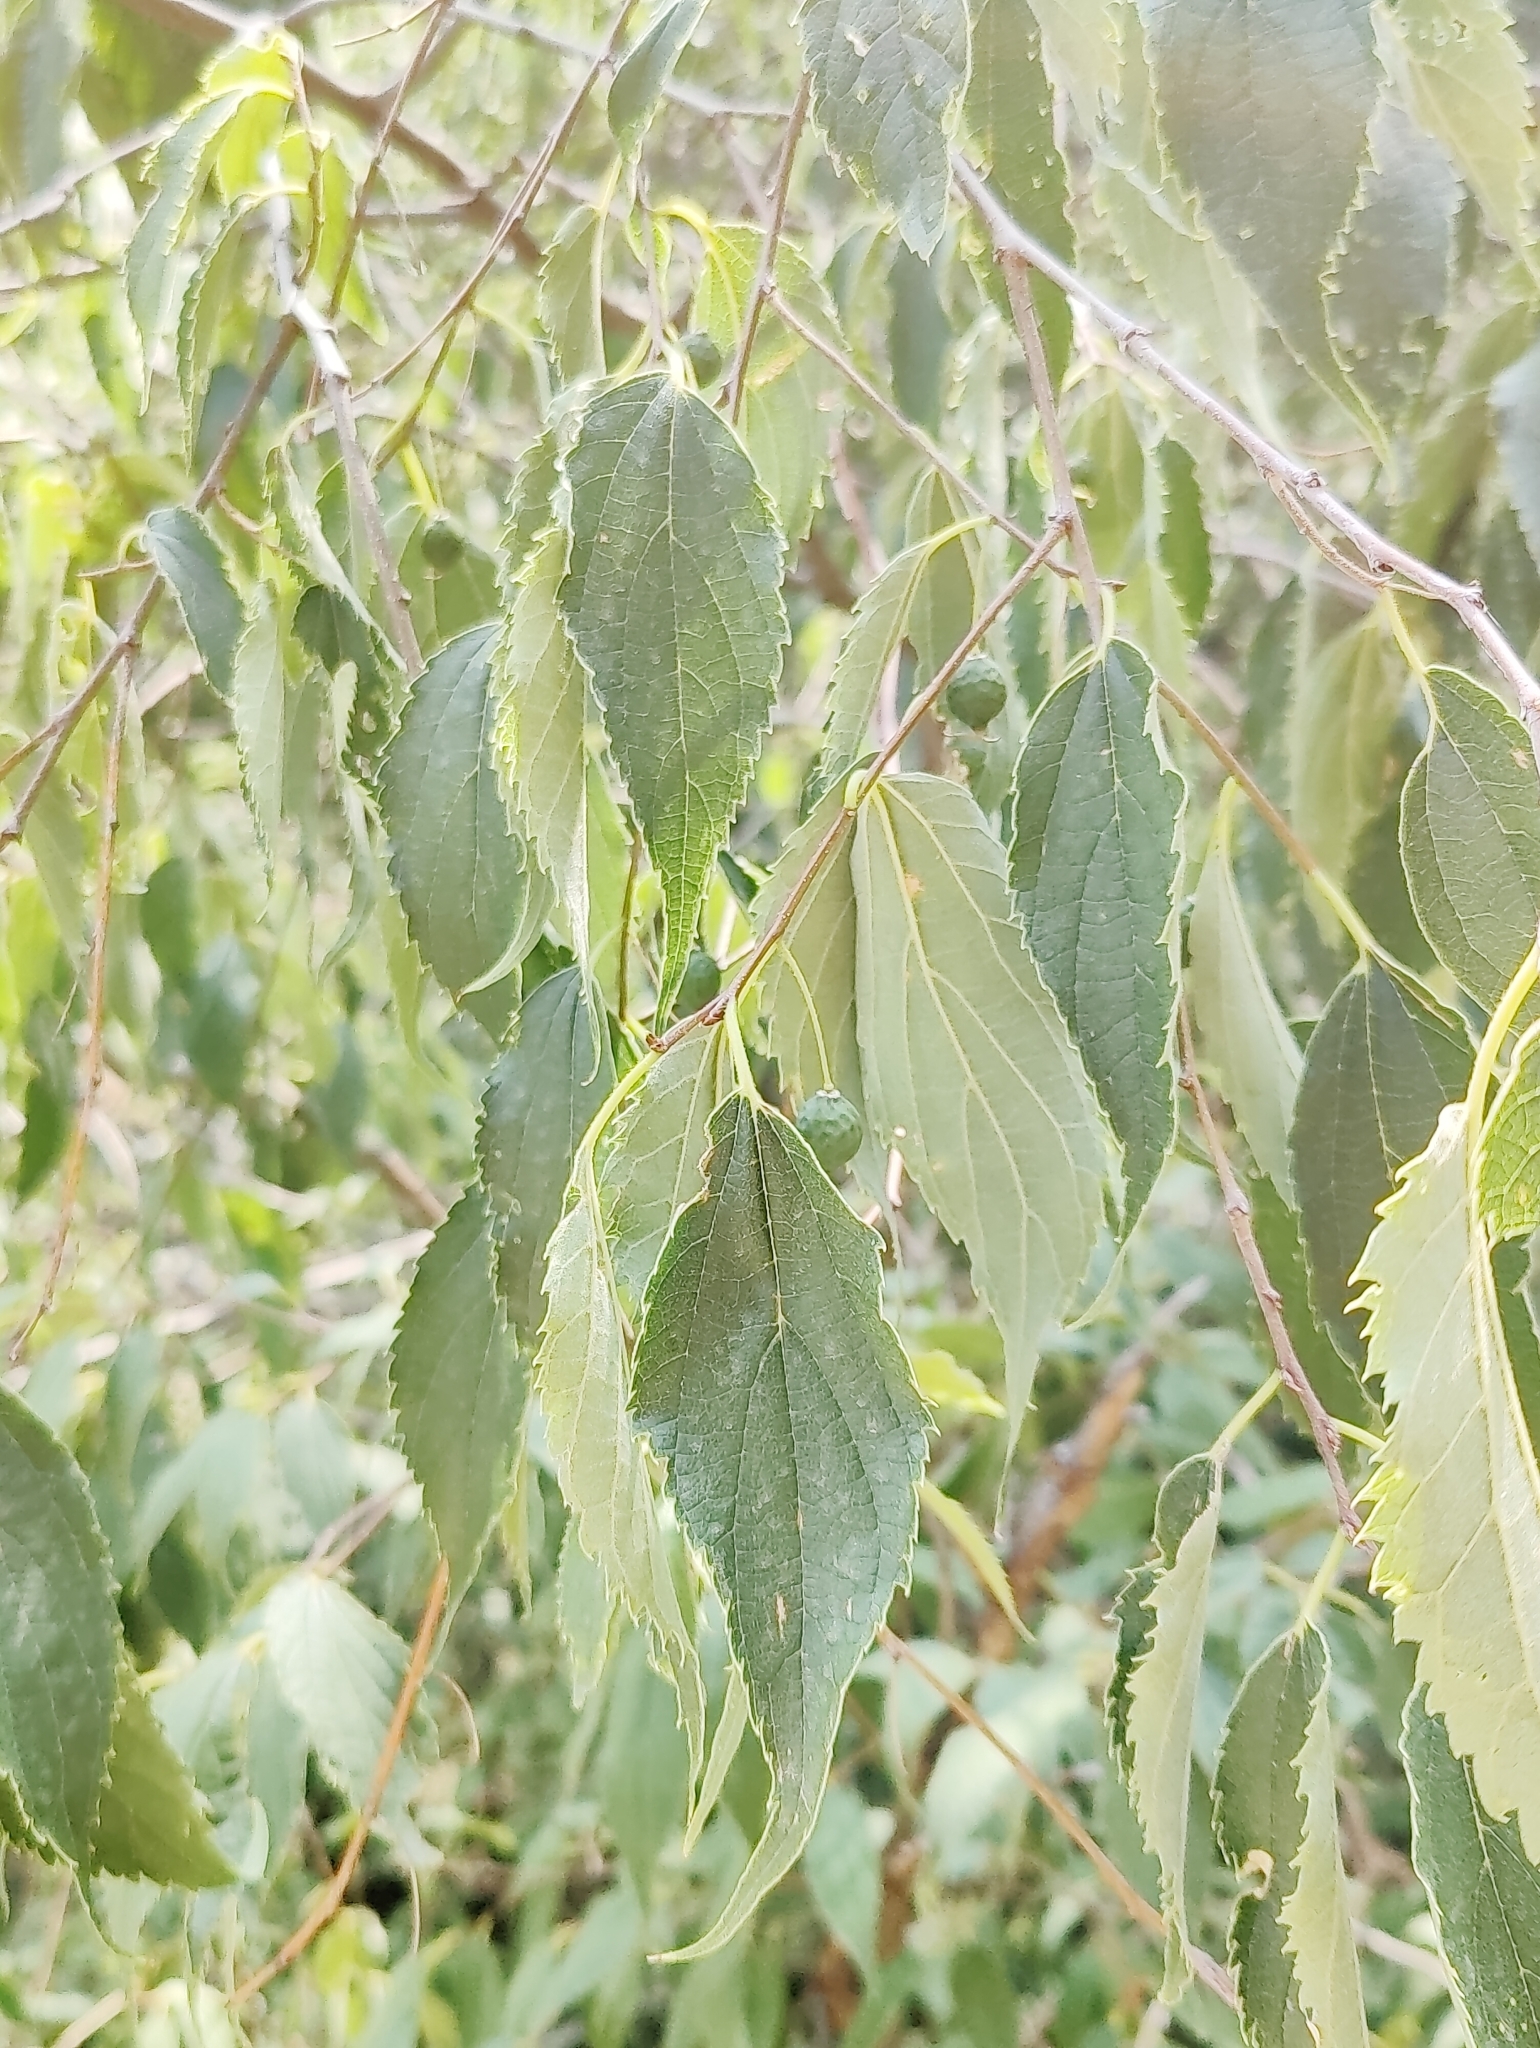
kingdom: Plantae
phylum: Tracheophyta
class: Magnoliopsida
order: Rosales
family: Cannabaceae
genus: Celtis
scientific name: Celtis australis
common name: European hackberry
